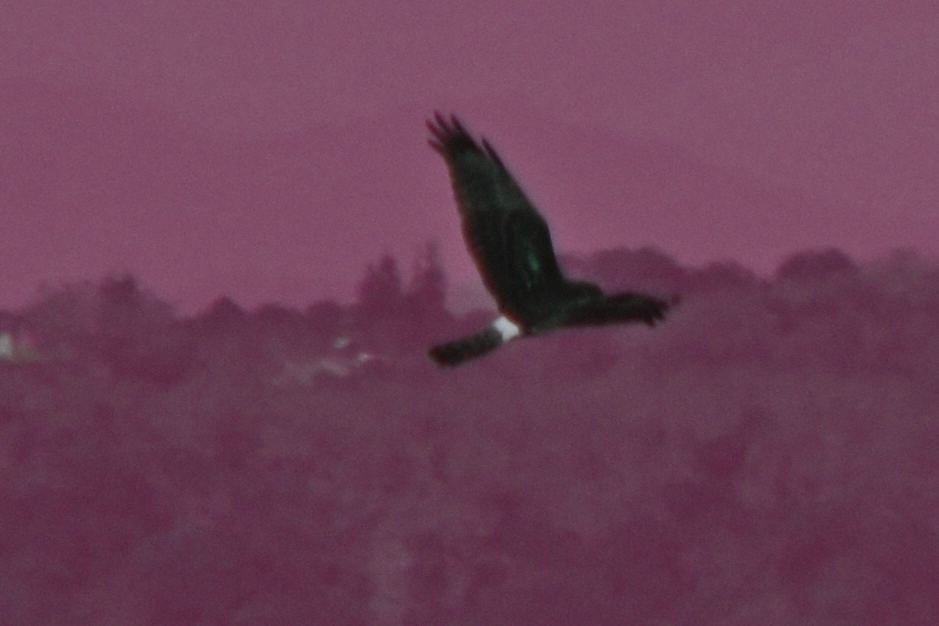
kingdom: Animalia
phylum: Chordata
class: Aves
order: Accipitriformes
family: Accipitridae
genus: Circus
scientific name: Circus cyaneus
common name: Hen harrier
